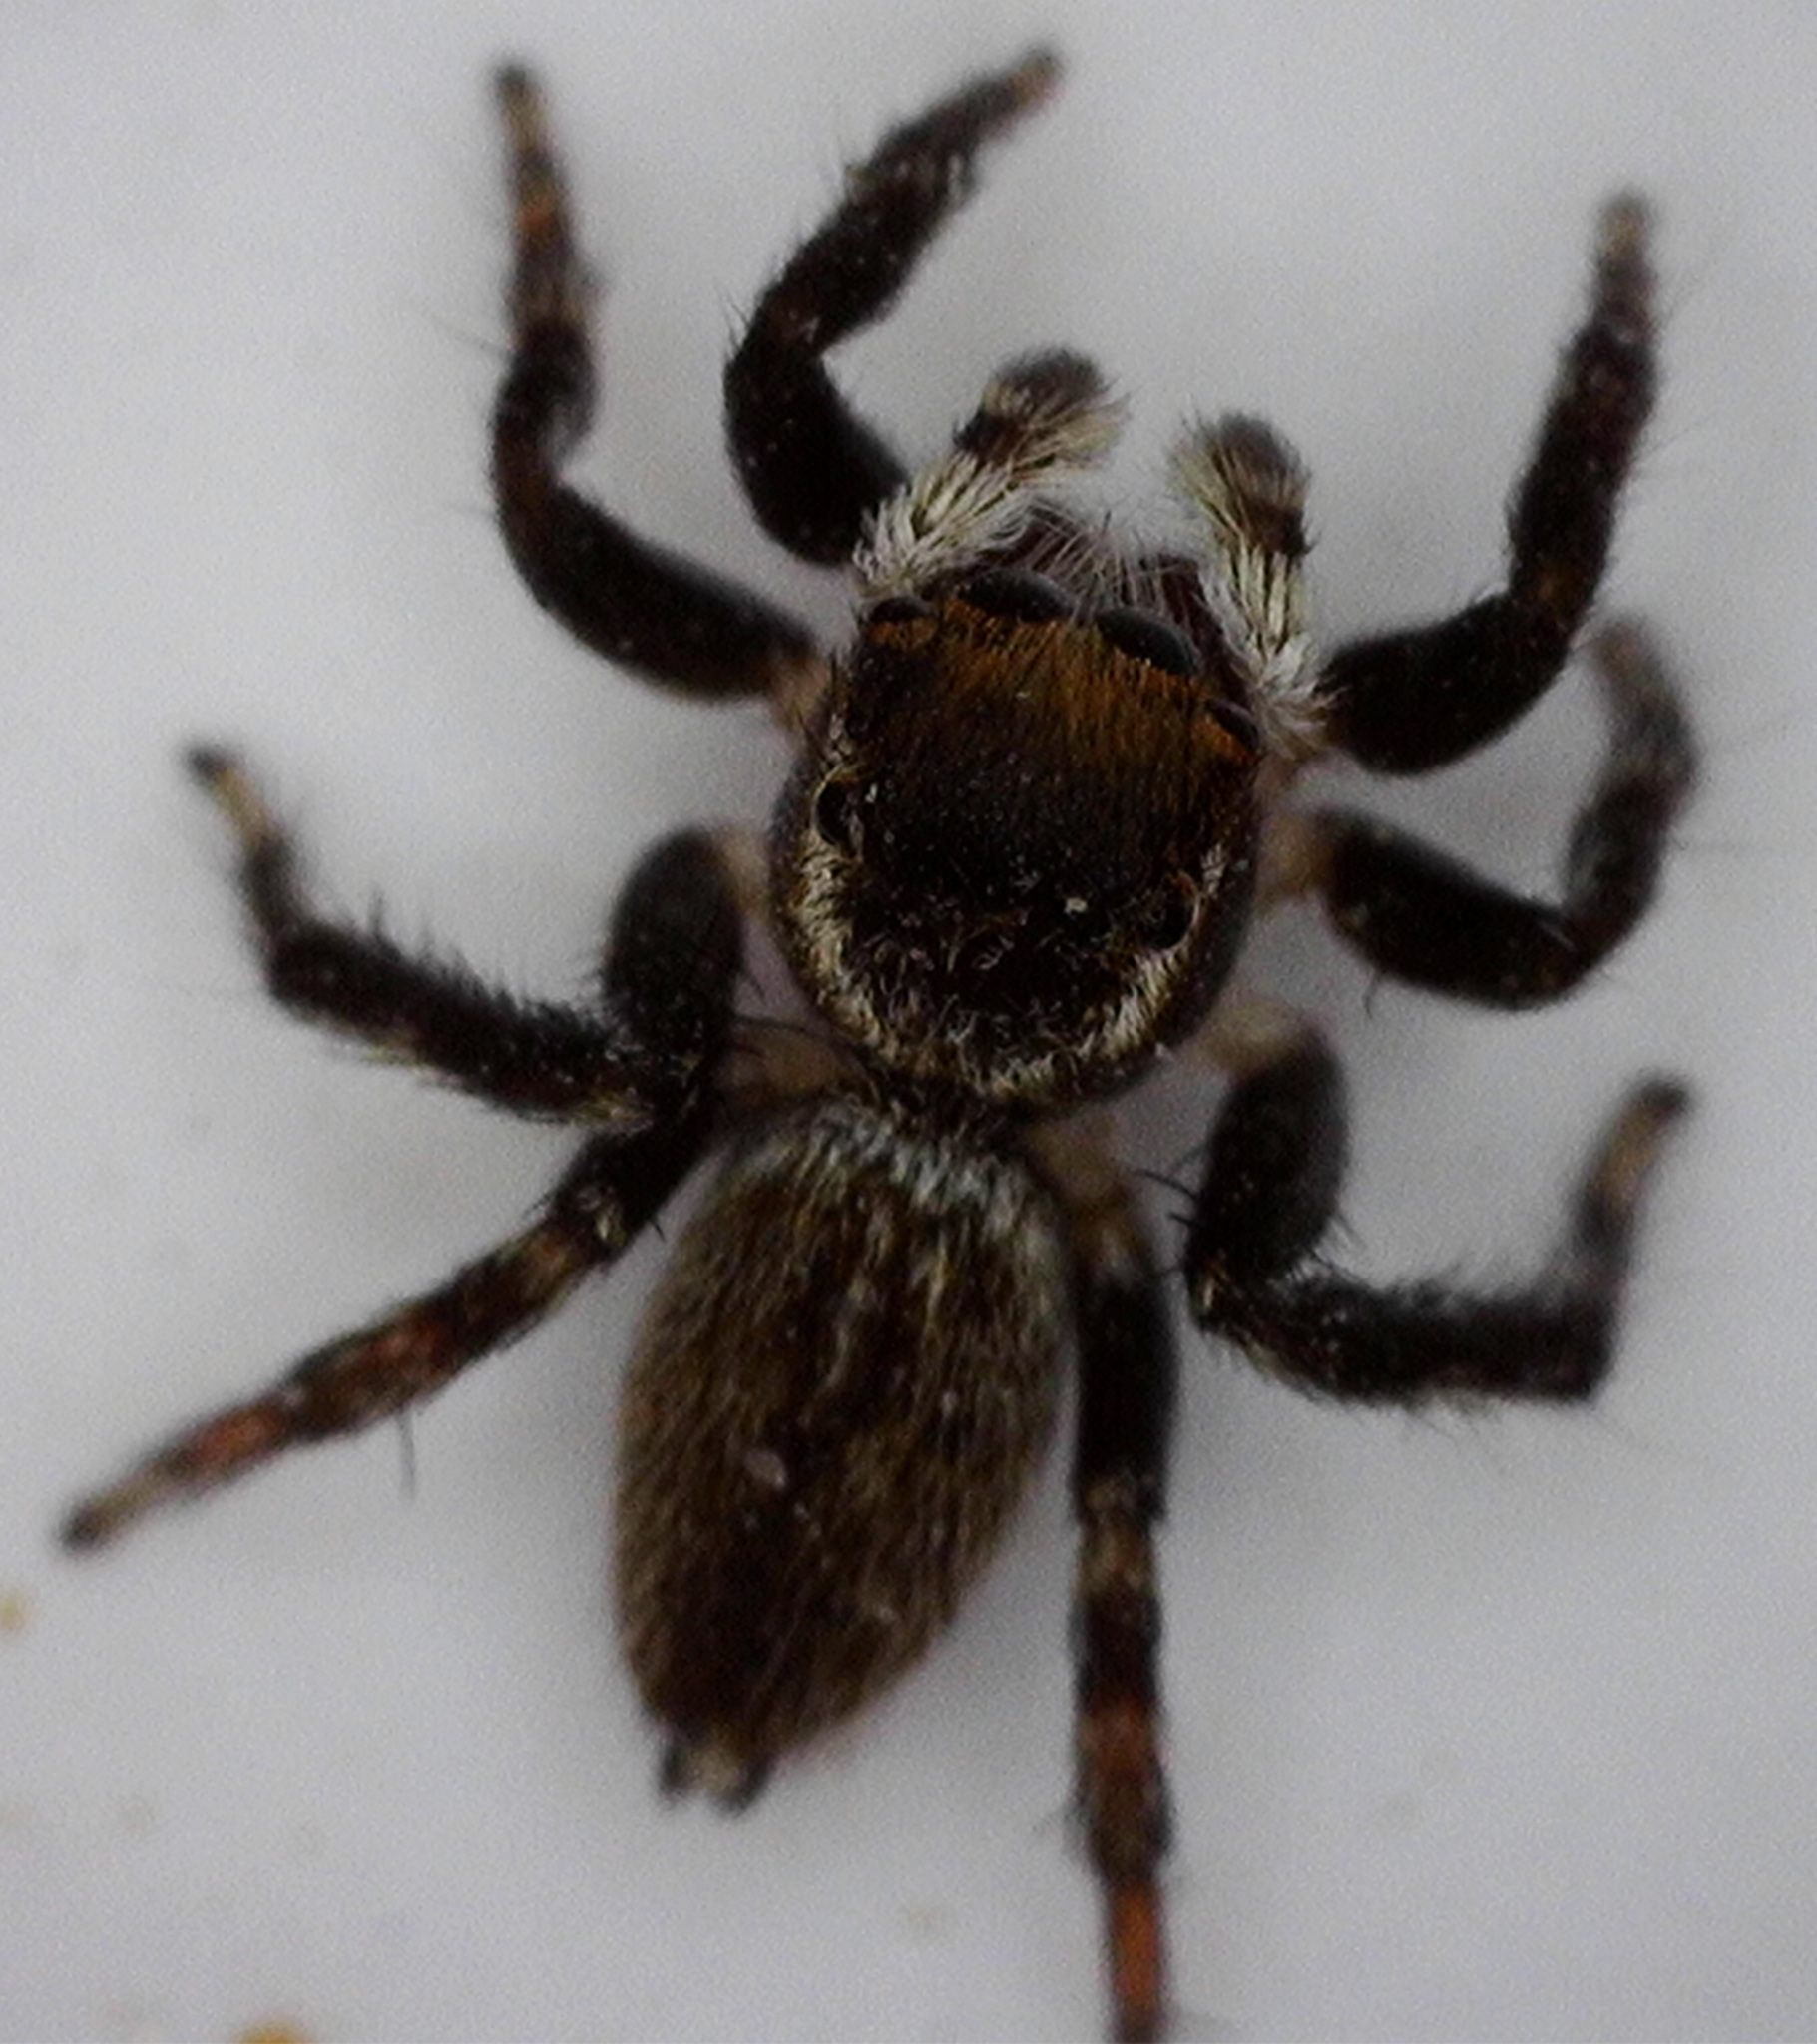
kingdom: Animalia
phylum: Arthropoda
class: Arachnida
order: Araneae
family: Salticidae
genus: Maratus
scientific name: Maratus griseus
